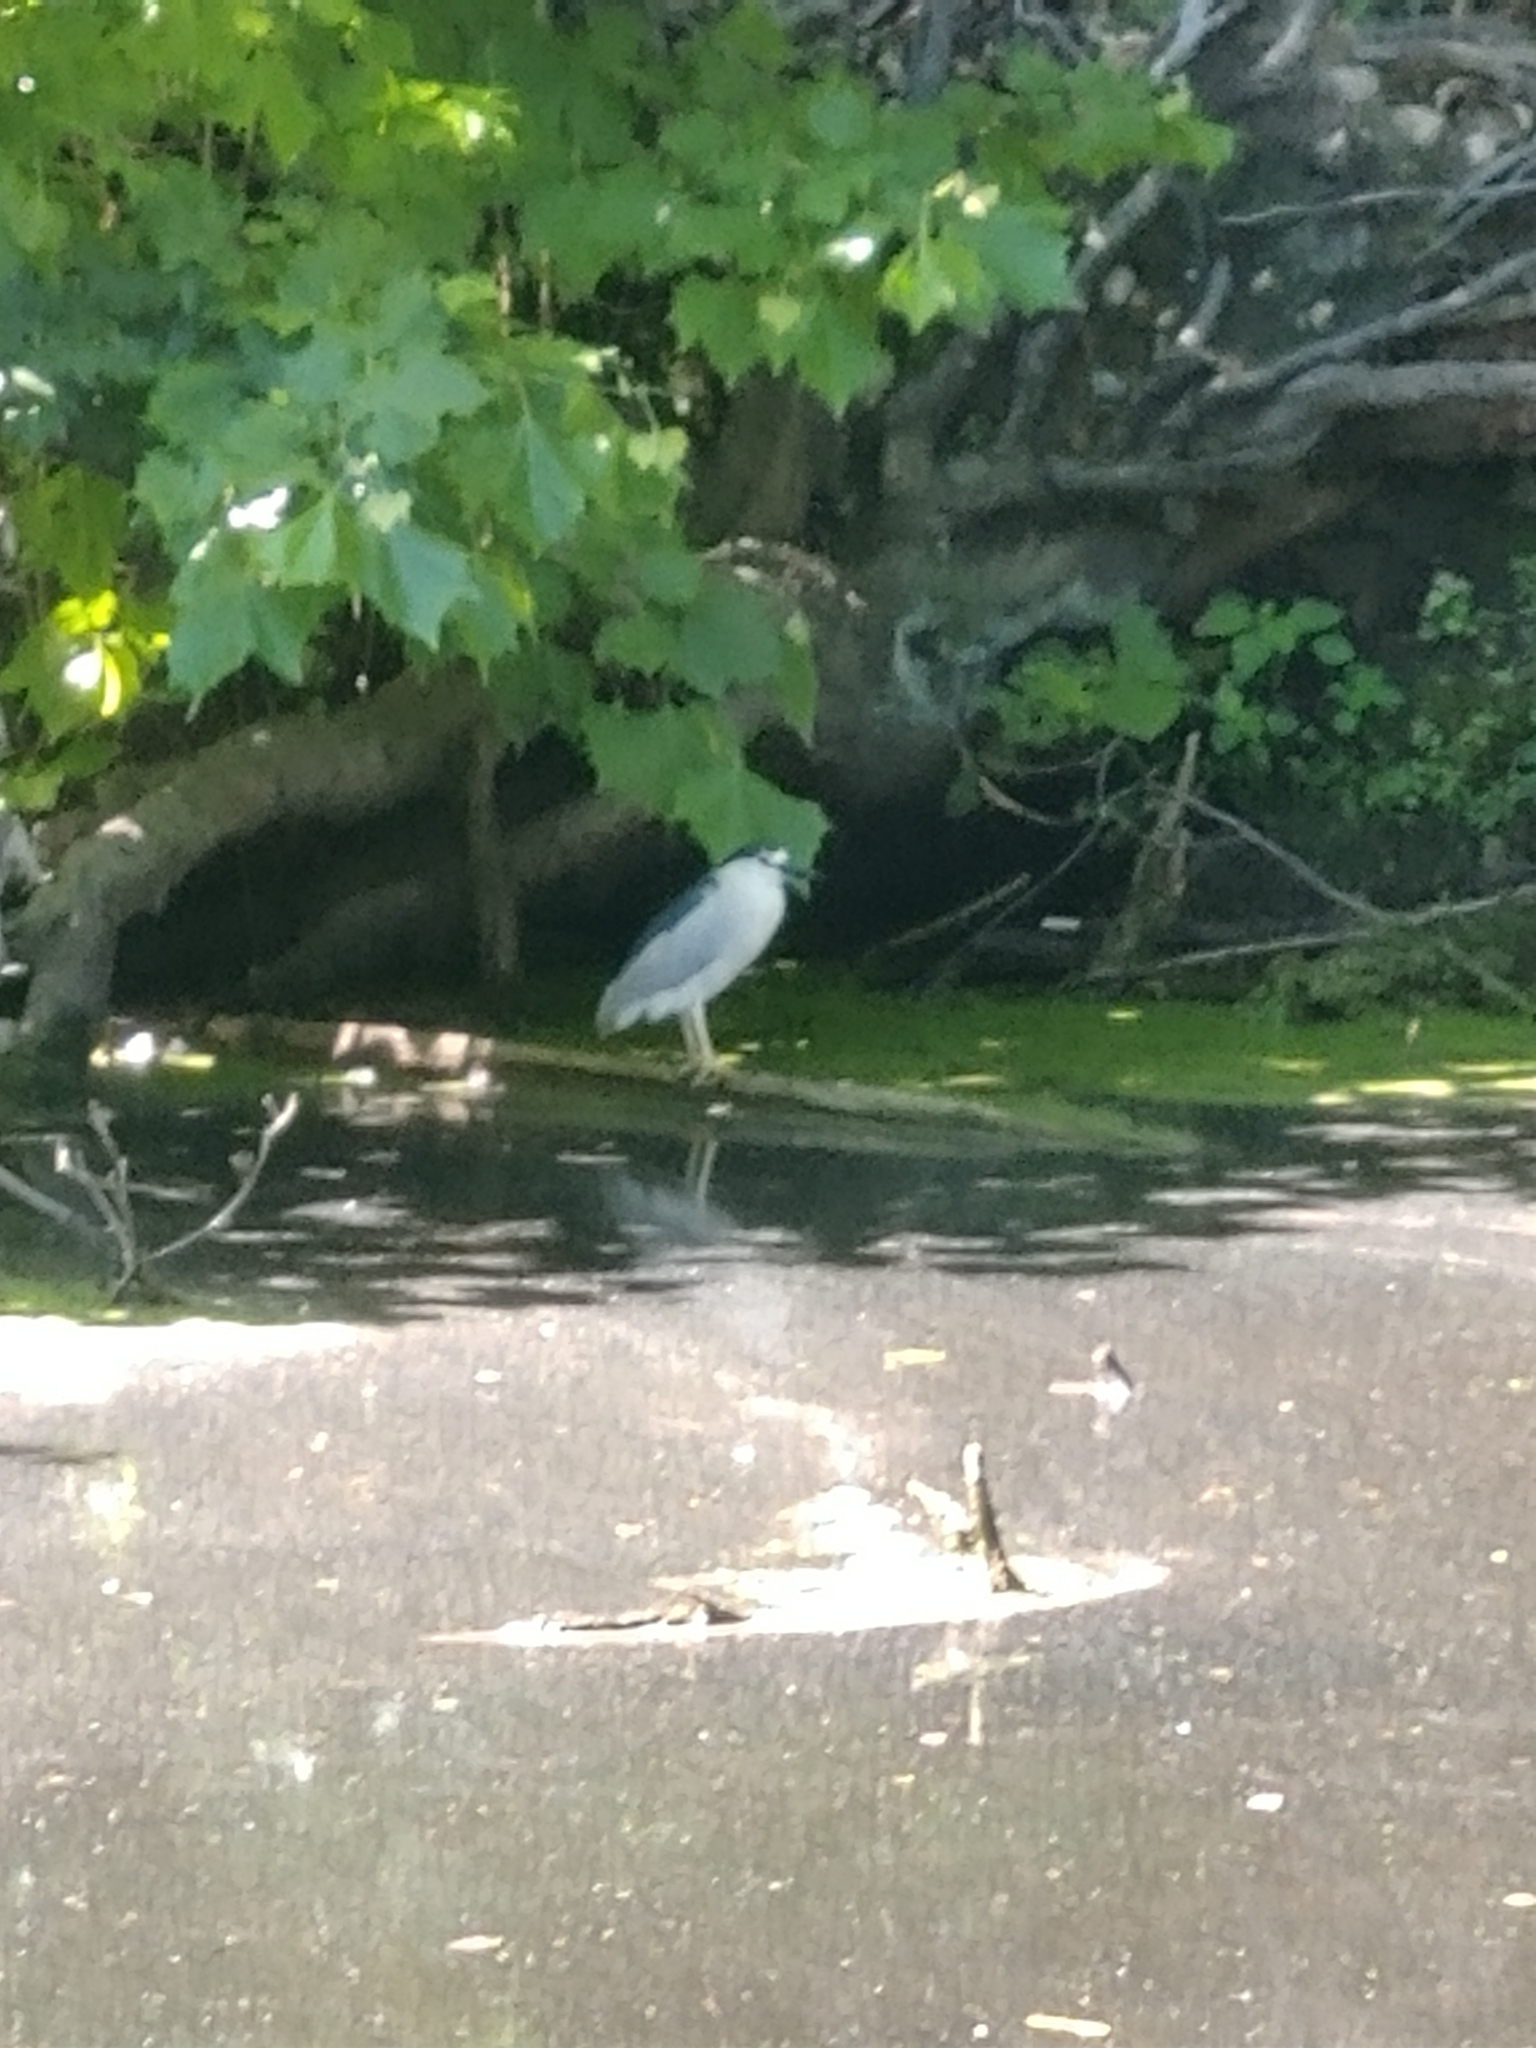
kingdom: Animalia
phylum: Chordata
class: Aves
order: Pelecaniformes
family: Ardeidae
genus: Nycticorax
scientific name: Nycticorax nycticorax
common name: Black-crowned night heron
